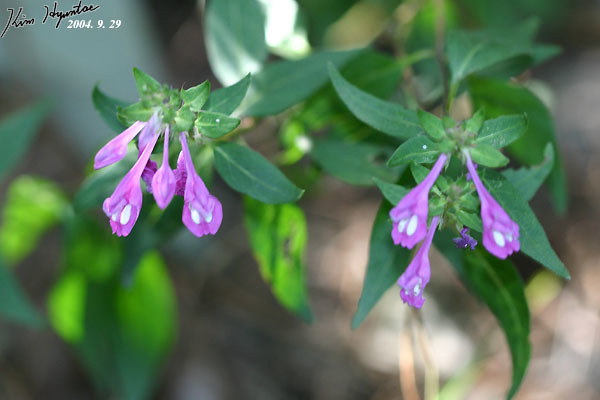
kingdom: Plantae
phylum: Tracheophyta
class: Magnoliopsida
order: Lamiales
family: Orobanchaceae
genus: Melampyrum
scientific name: Melampyrum roseum
